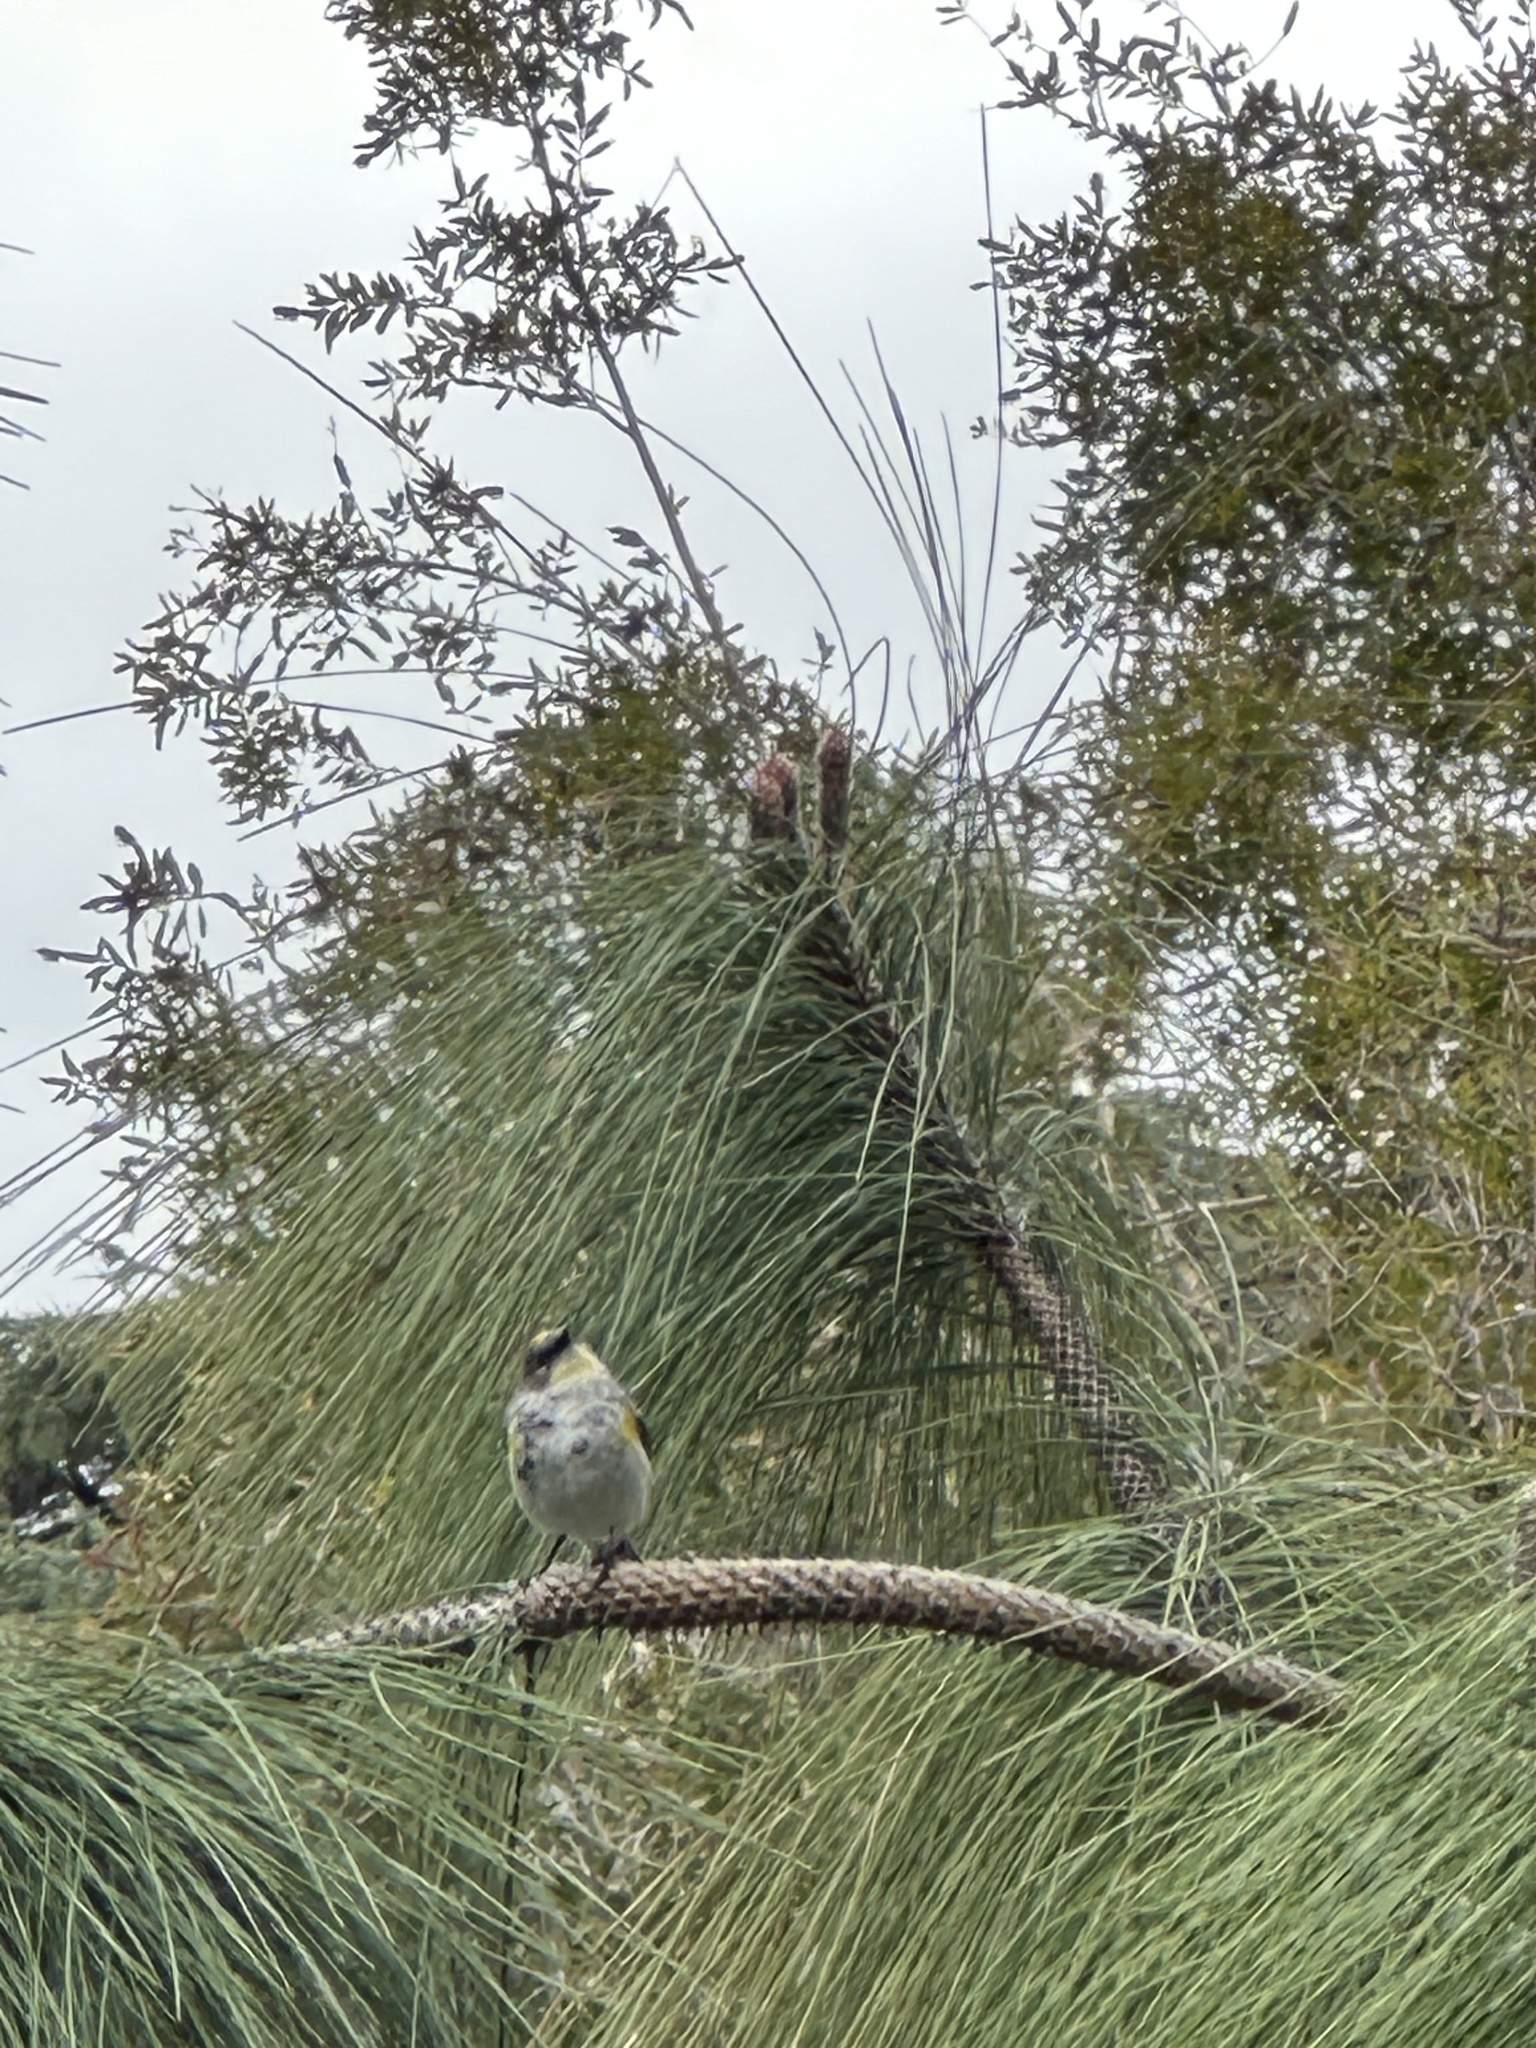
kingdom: Animalia
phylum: Chordata
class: Aves
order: Passeriformes
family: Parulidae
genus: Setophaga
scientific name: Setophaga coronata
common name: Myrtle warbler
